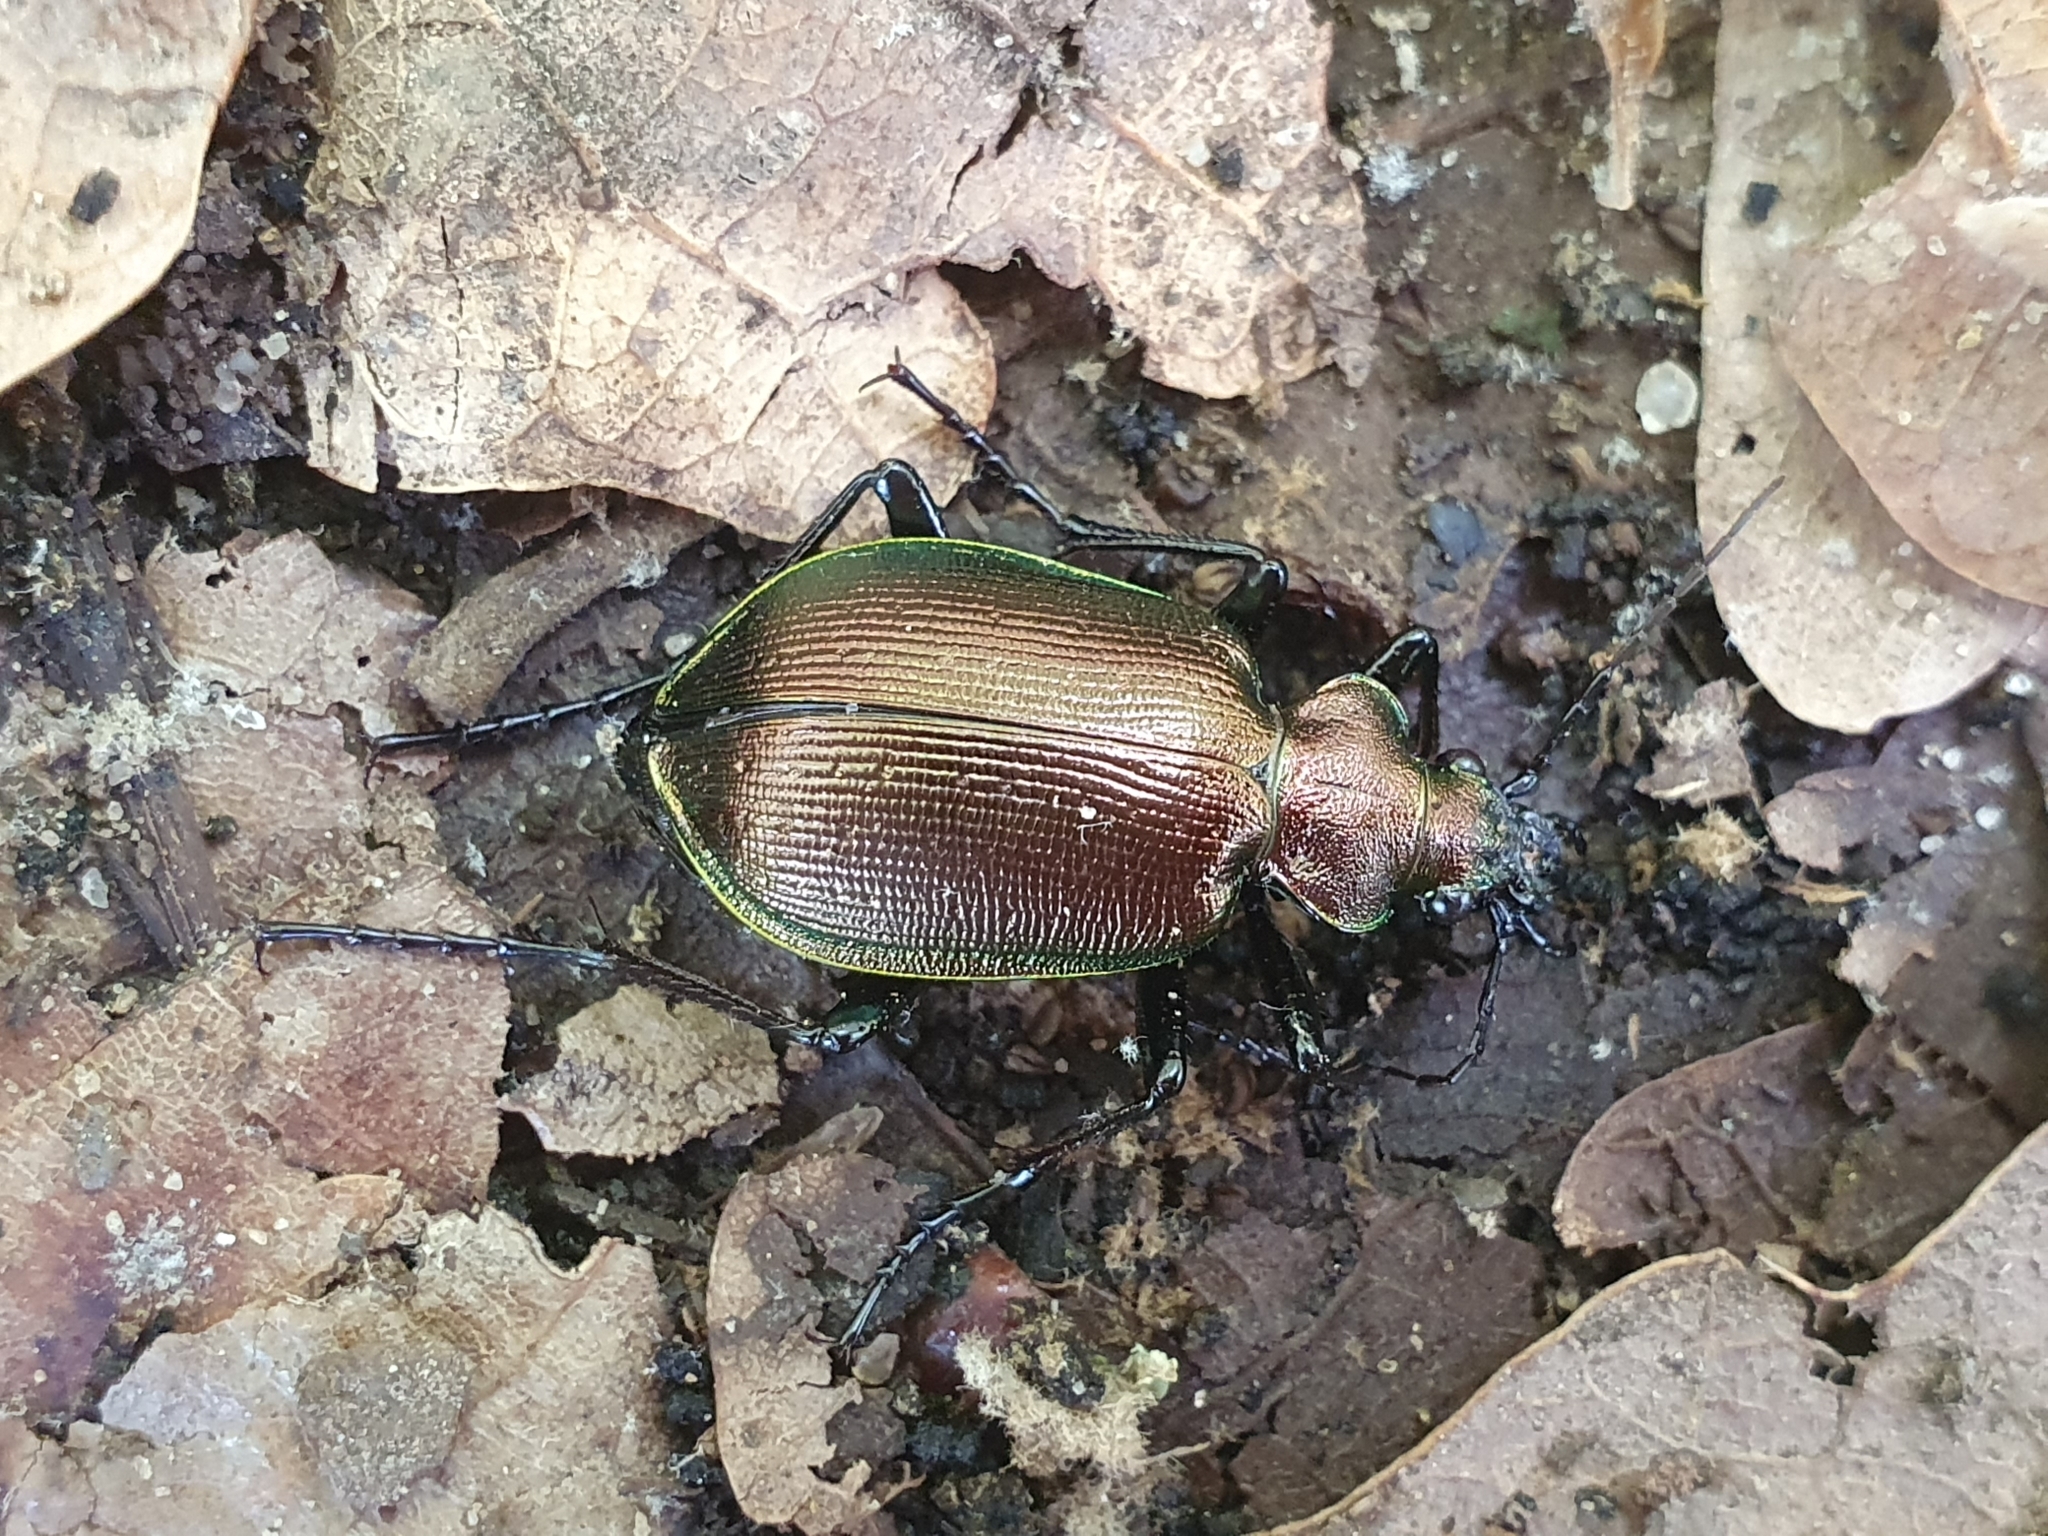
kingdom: Animalia
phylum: Arthropoda
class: Insecta
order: Coleoptera
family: Carabidae
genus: Calosoma
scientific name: Calosoma inquisitor
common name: Caterpillar-hunter
